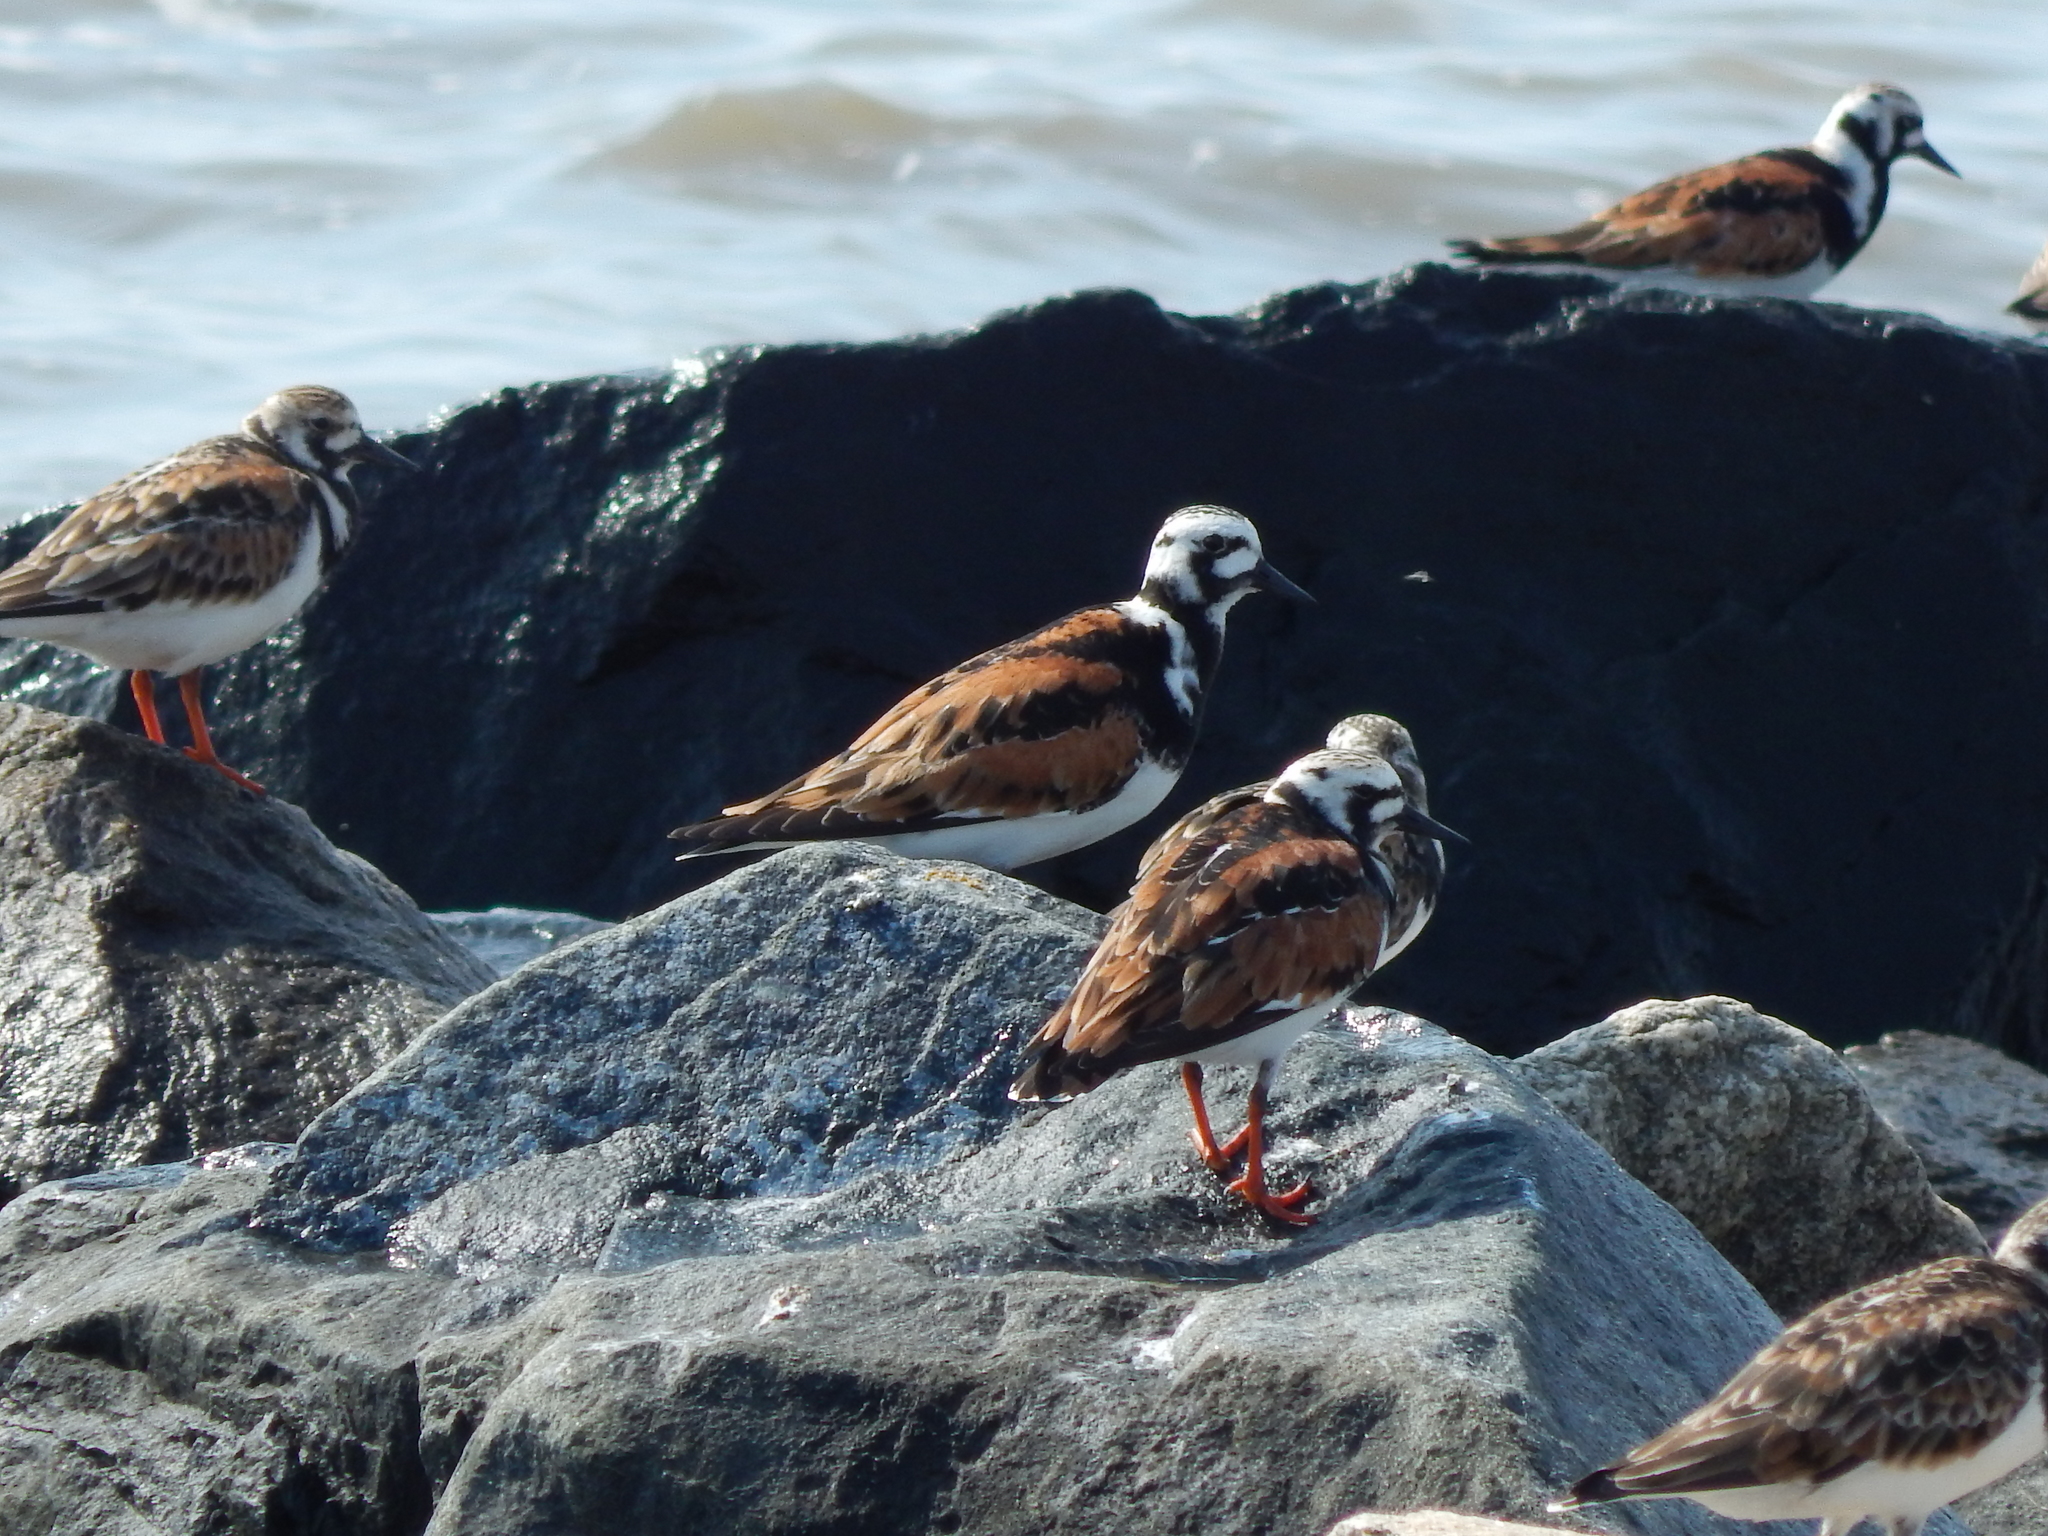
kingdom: Animalia
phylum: Chordata
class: Aves
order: Charadriiformes
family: Scolopacidae
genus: Arenaria
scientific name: Arenaria interpres
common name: Ruddy turnstone
